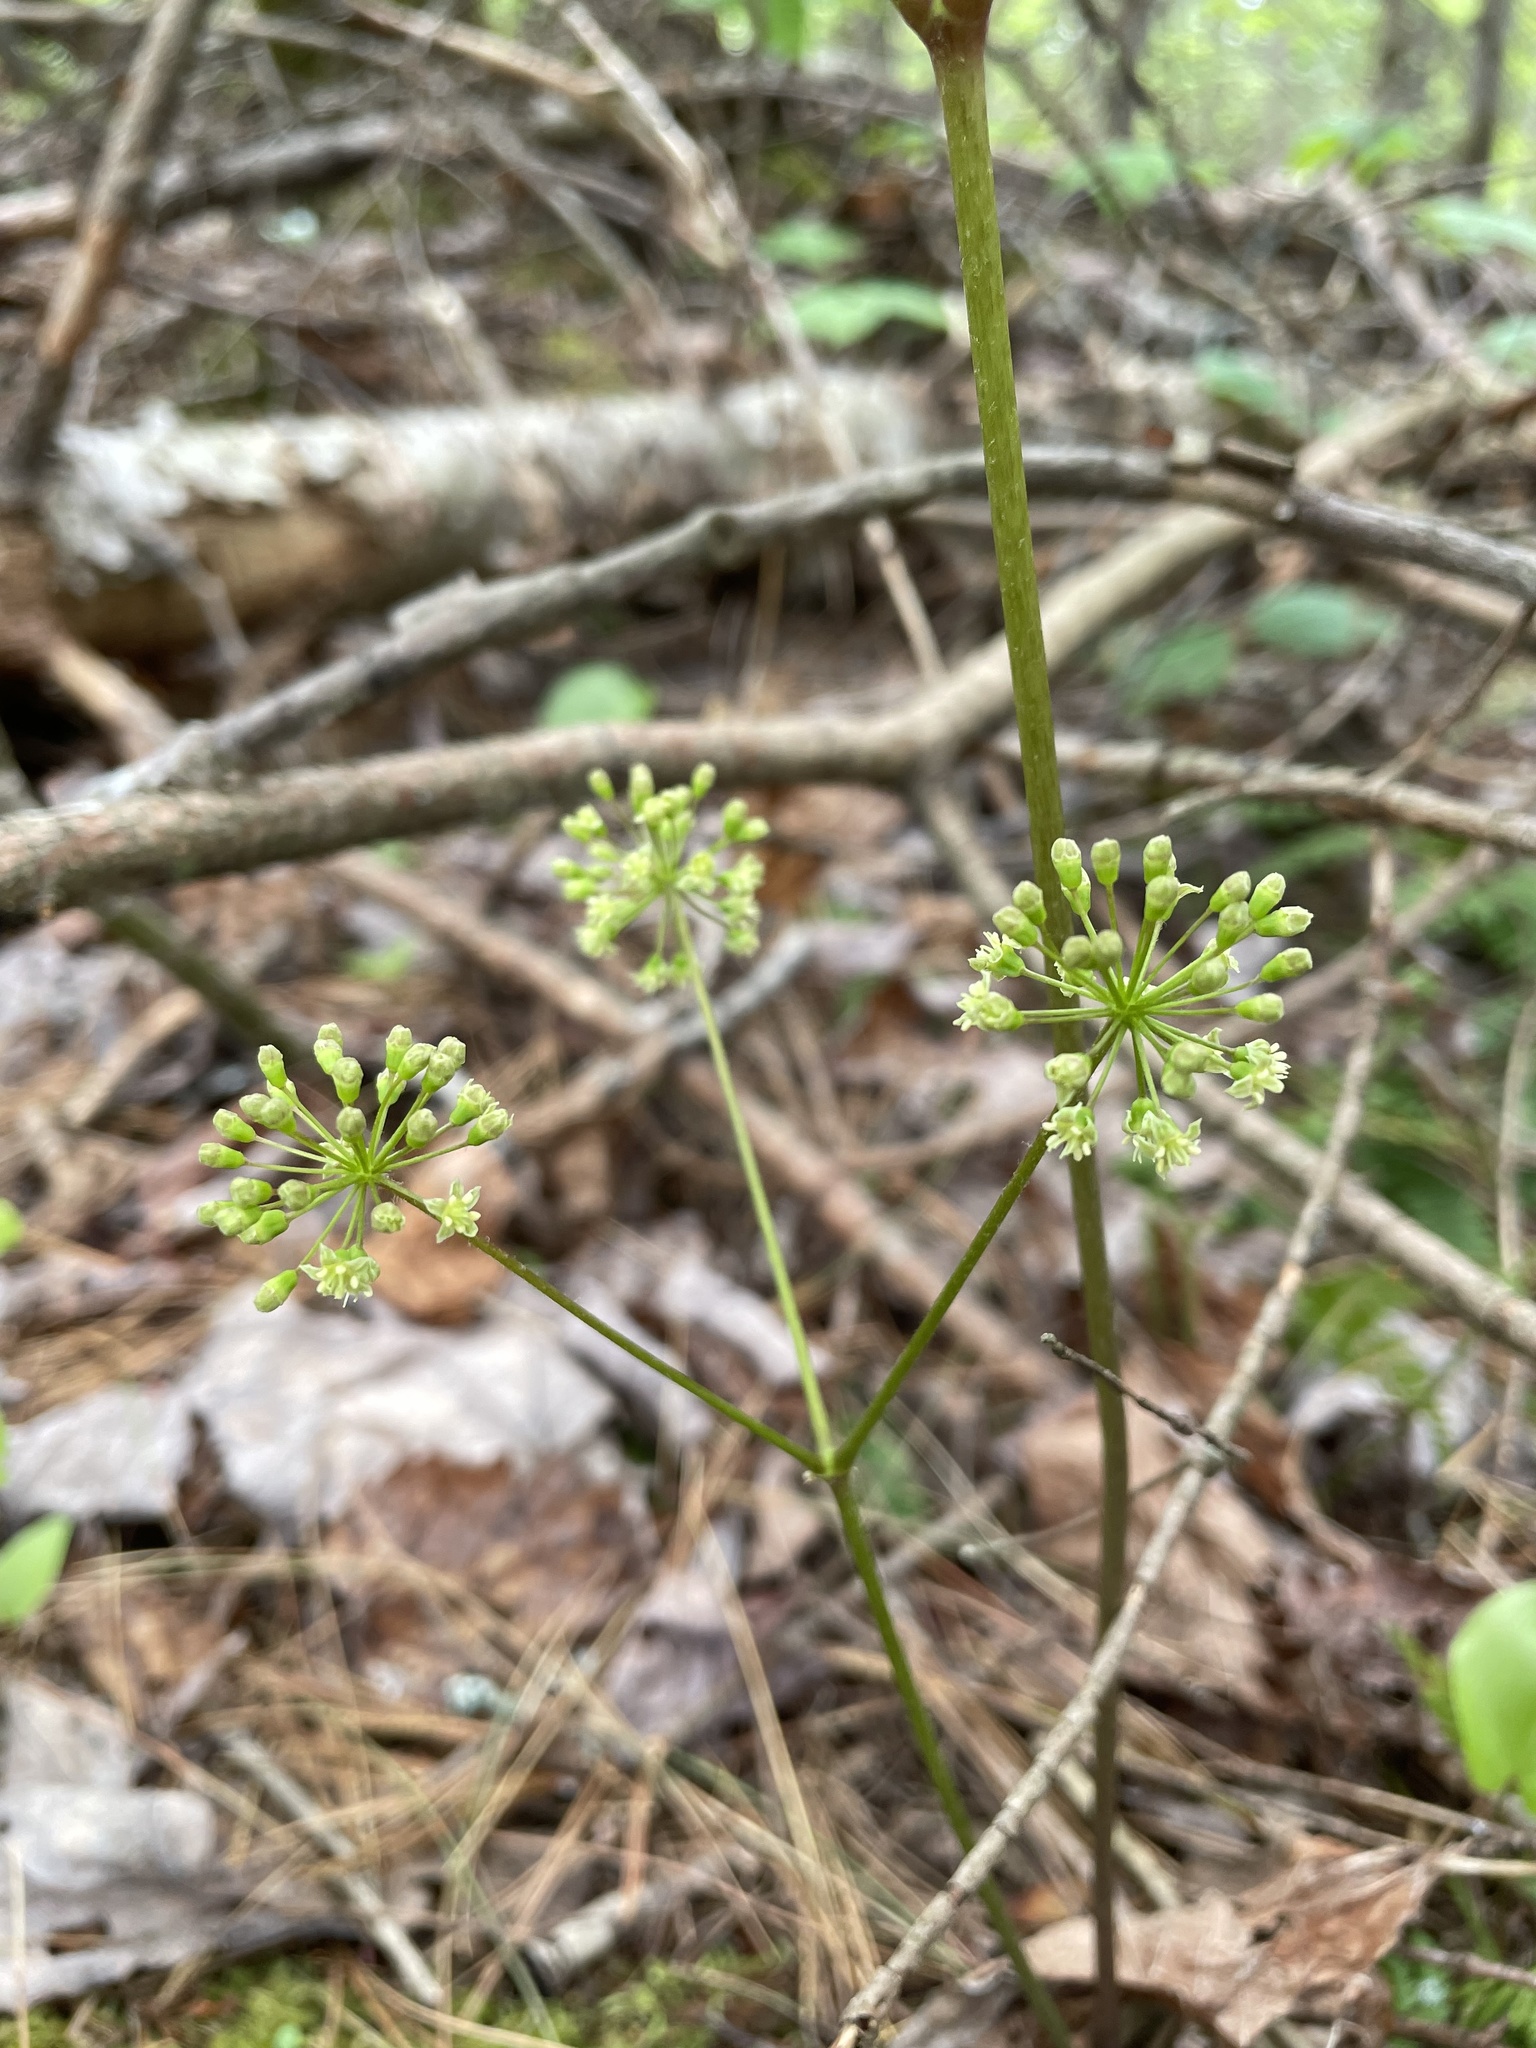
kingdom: Plantae
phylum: Tracheophyta
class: Magnoliopsida
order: Apiales
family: Araliaceae
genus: Aralia
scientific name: Aralia nudicaulis
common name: Wild sarsaparilla
